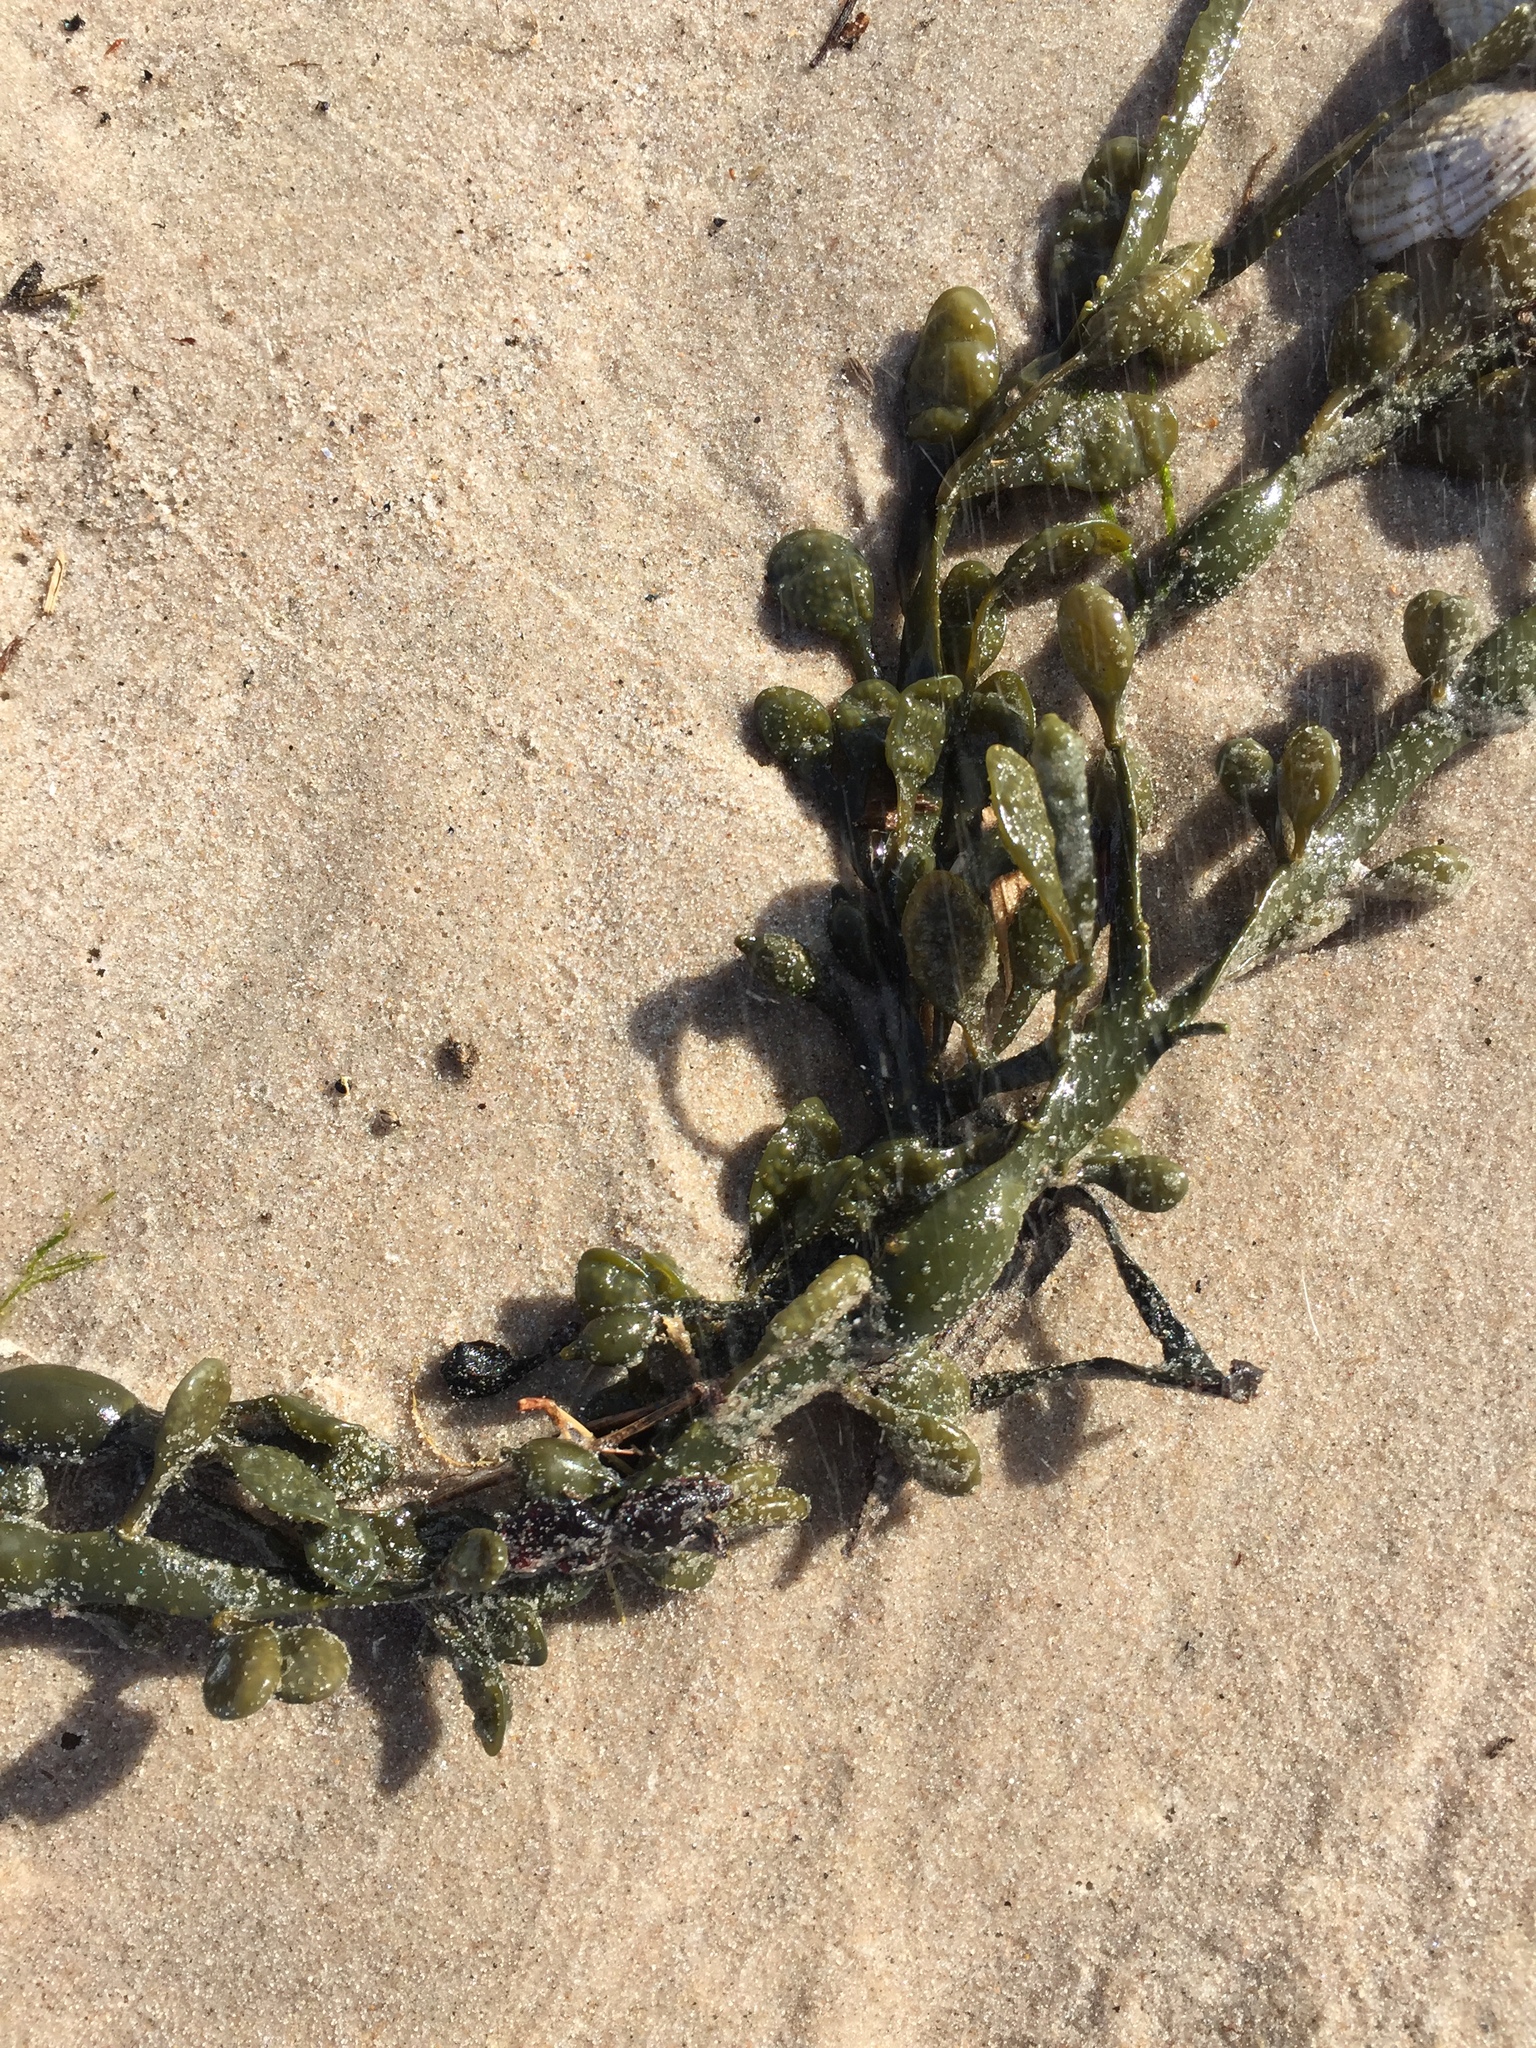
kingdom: Chromista
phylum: Ochrophyta
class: Phaeophyceae
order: Fucales
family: Fucaceae
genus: Ascophyllum
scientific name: Ascophyllum nodosum
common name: Knotted wrack
